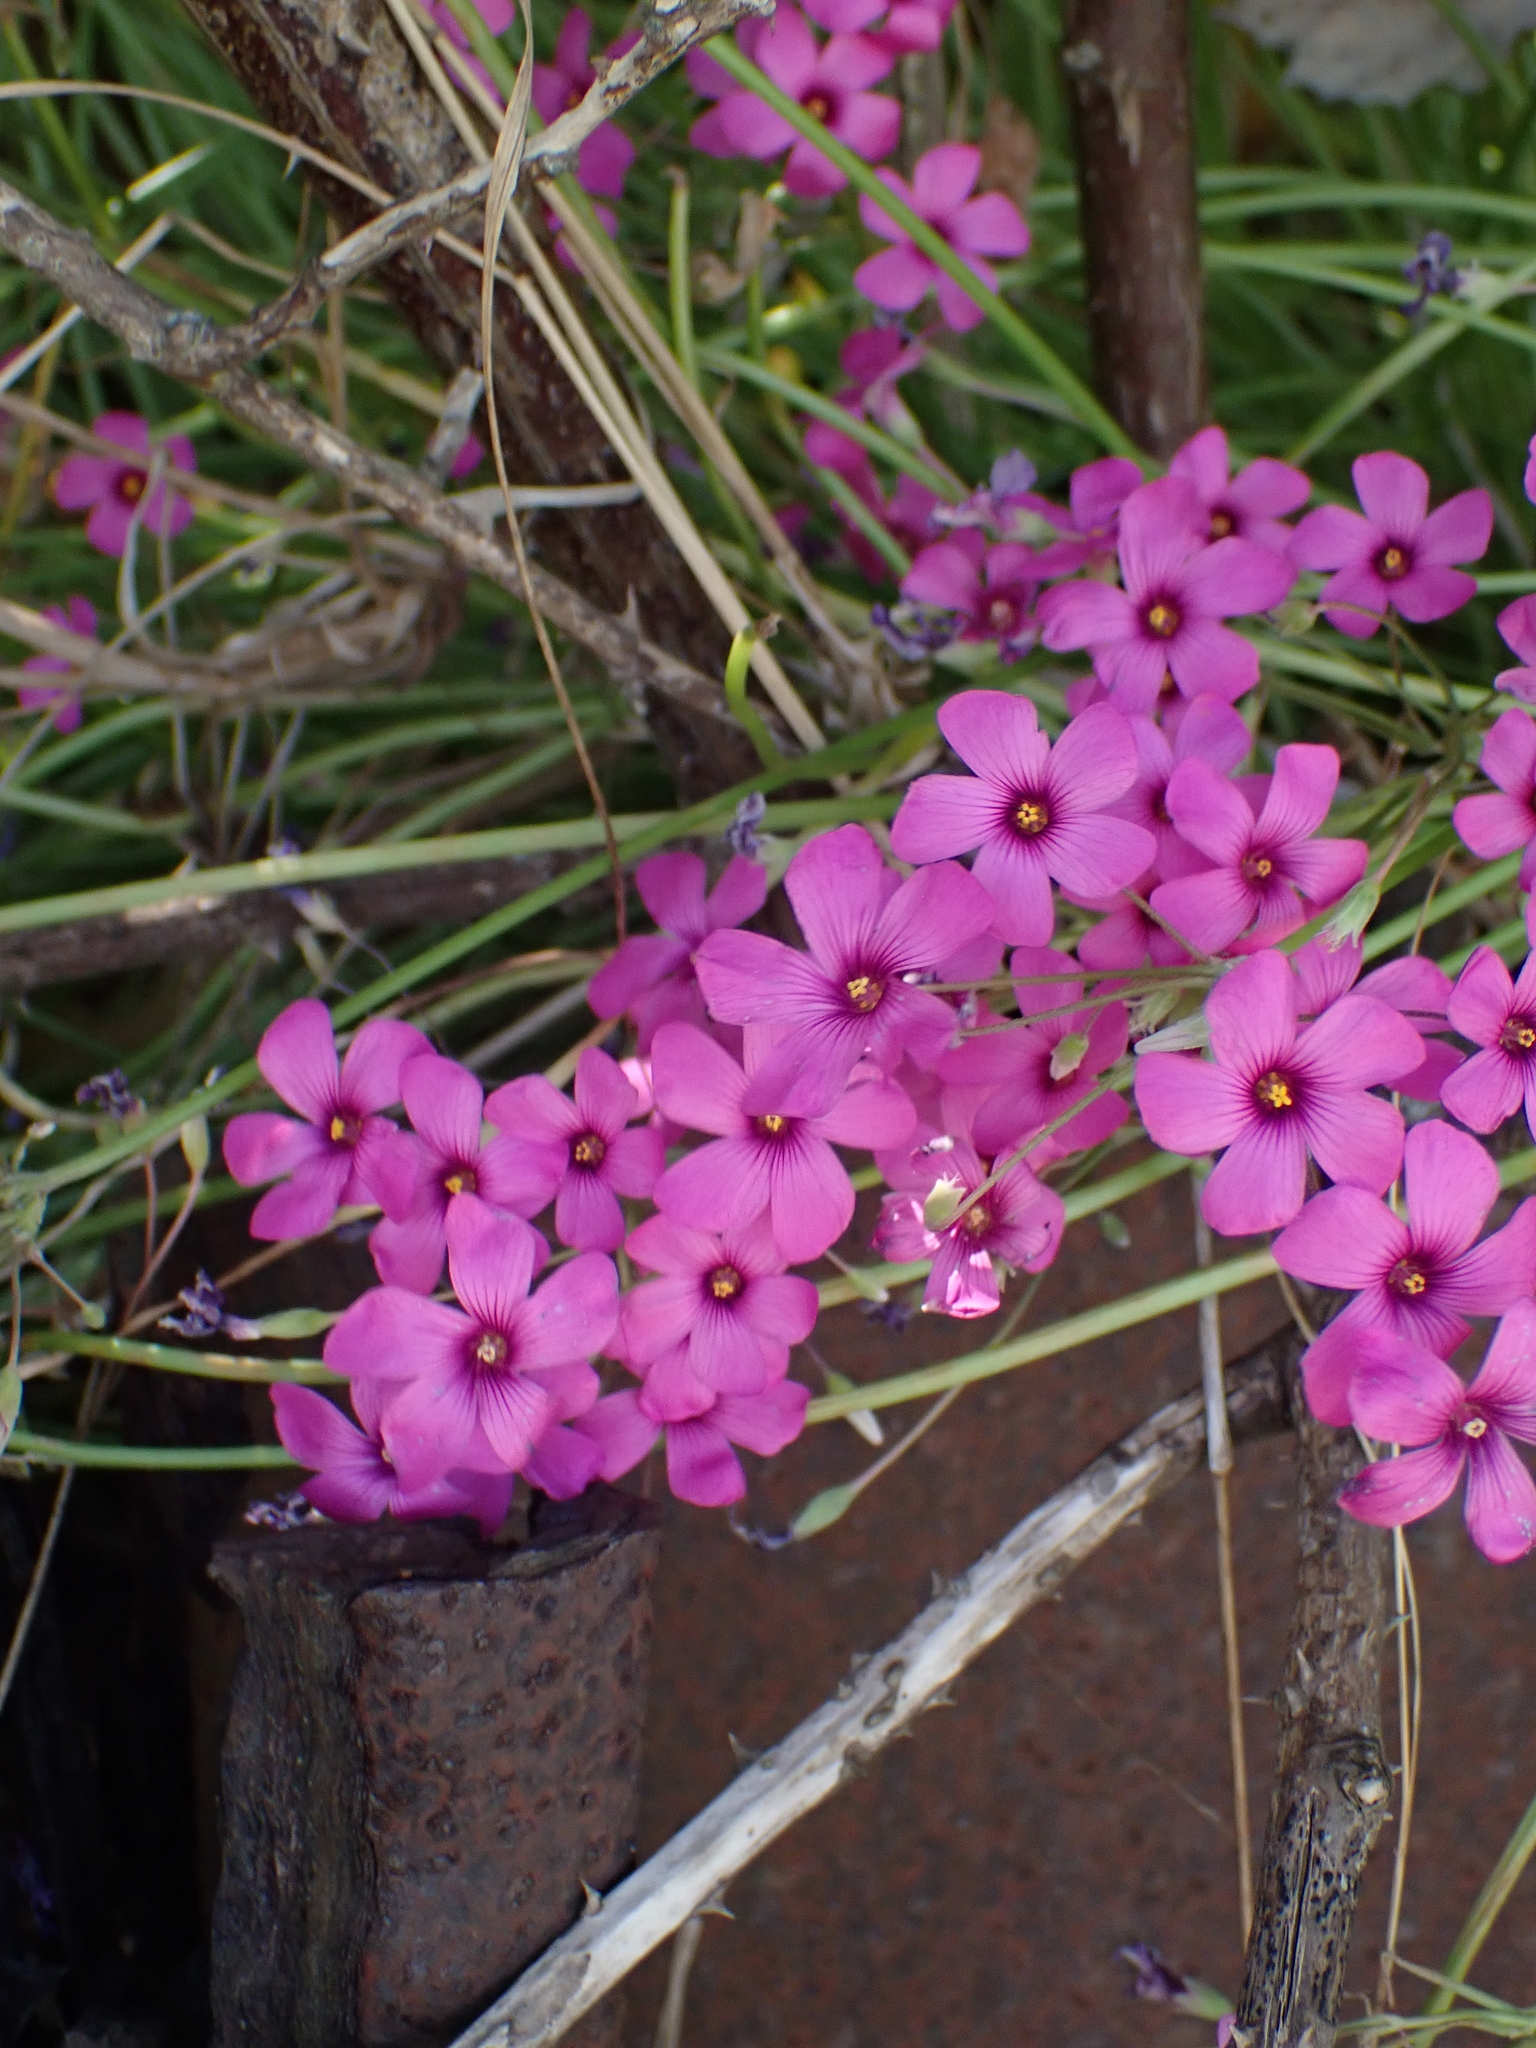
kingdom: Plantae
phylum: Tracheophyta
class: Magnoliopsida
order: Oxalidales
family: Oxalidaceae
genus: Oxalis
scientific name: Oxalis articulata
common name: Pink-sorrel
